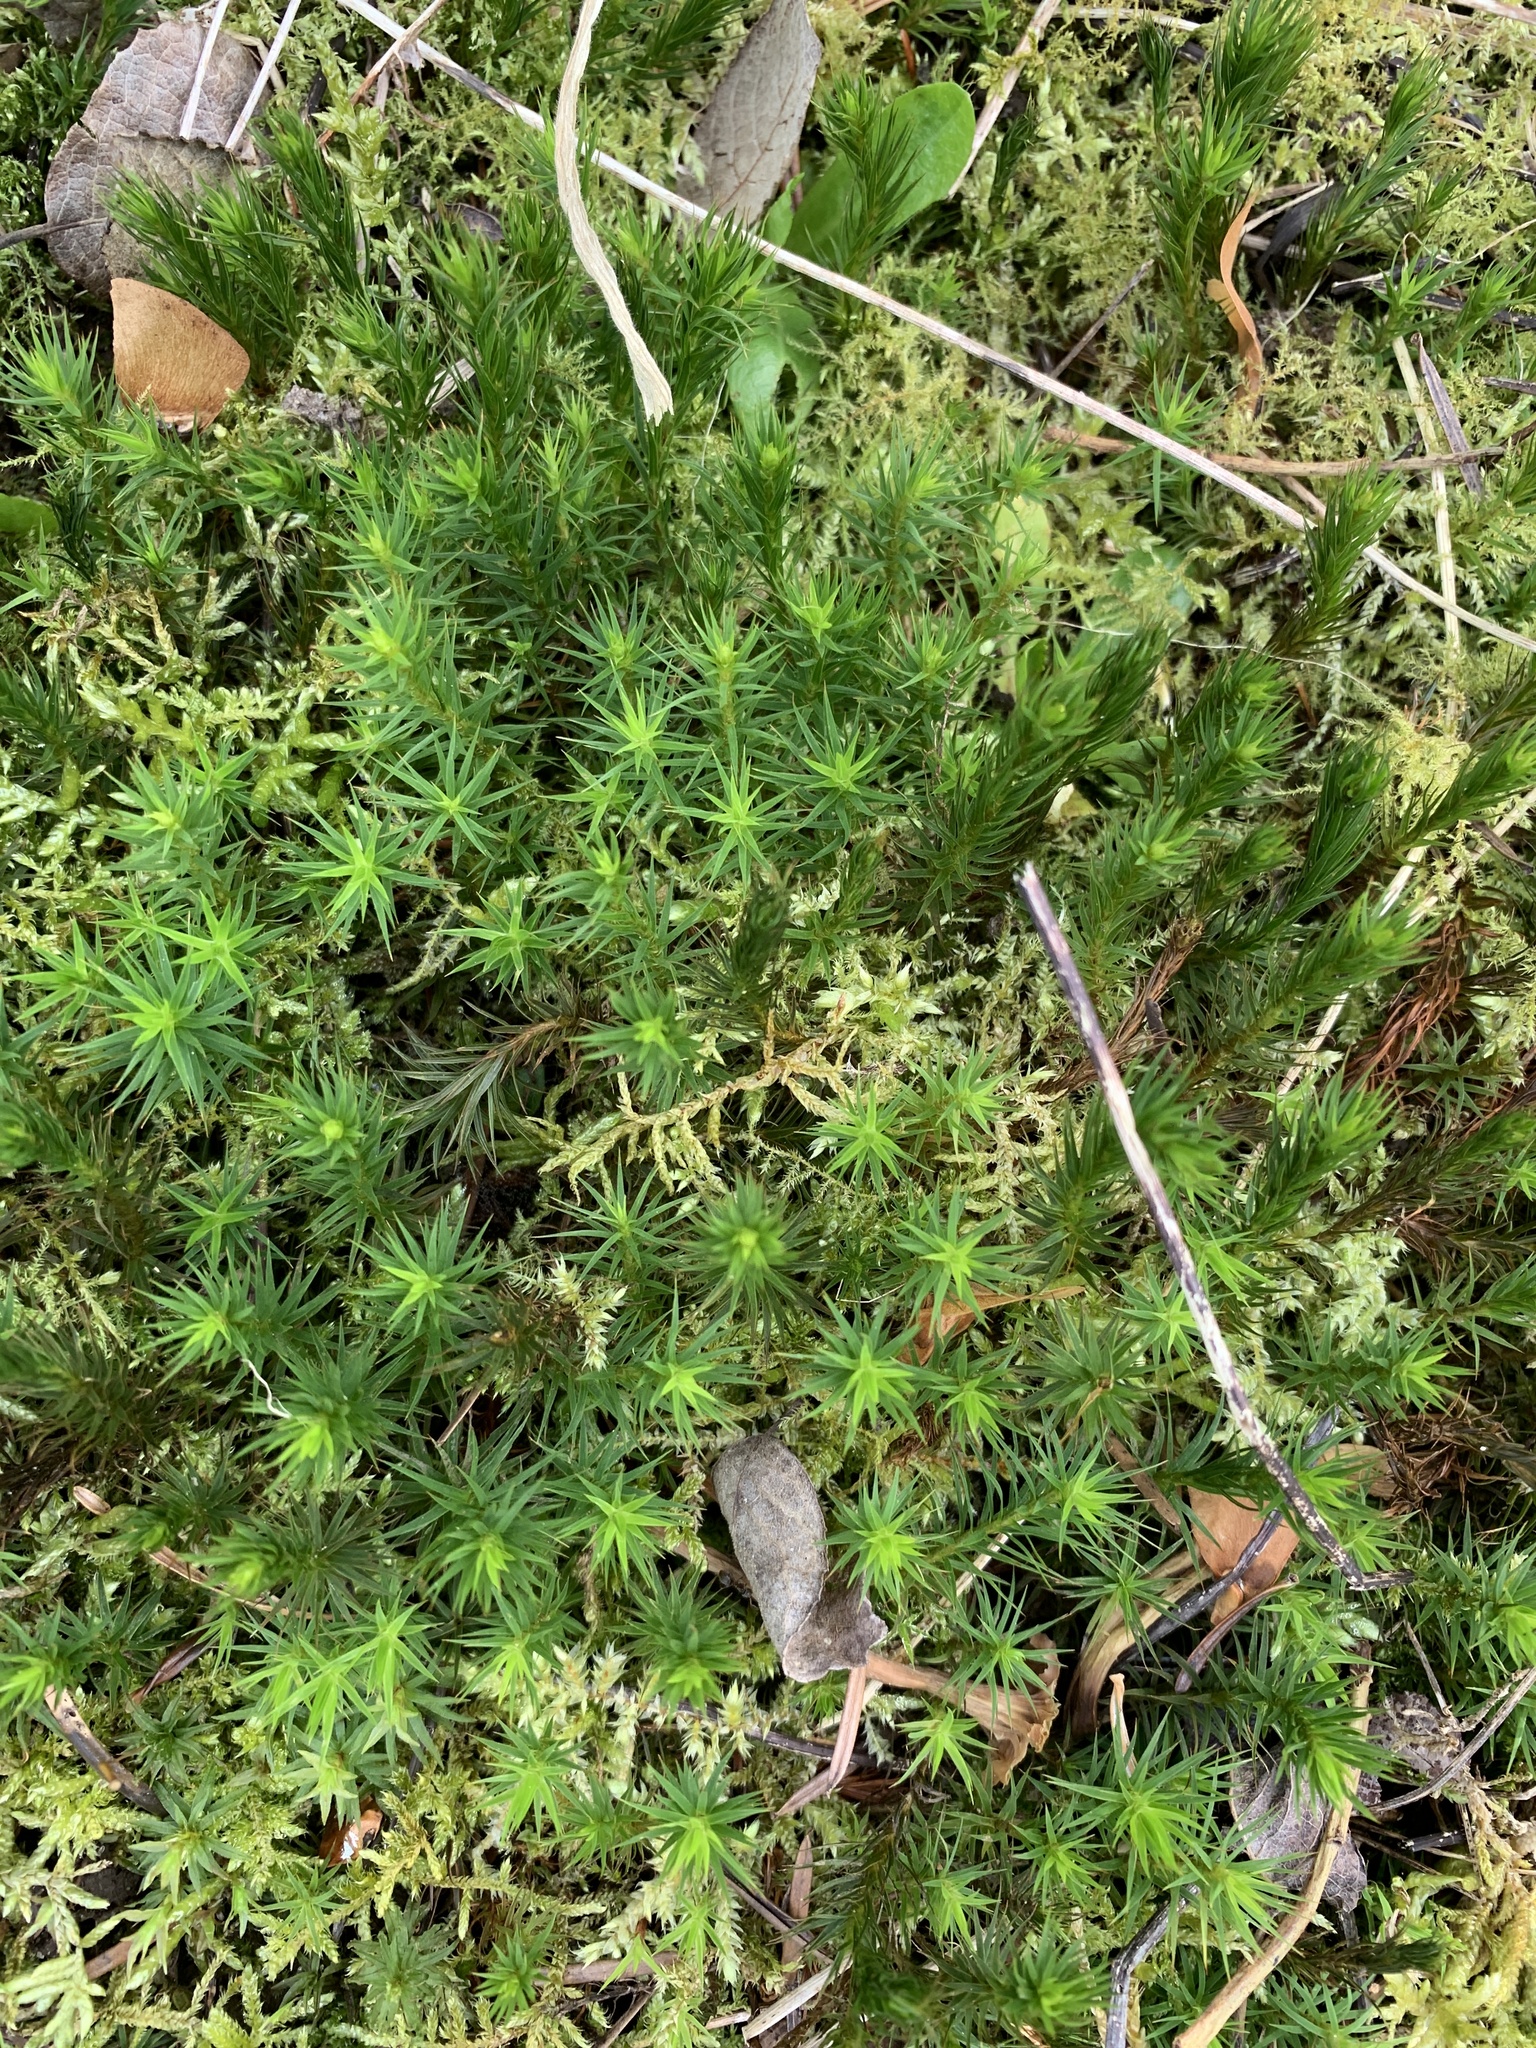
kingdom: Plantae
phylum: Bryophyta
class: Polytrichopsida
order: Polytrichales
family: Polytrichaceae
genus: Polytrichum
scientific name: Polytrichum formosum
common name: Bank haircap moss
